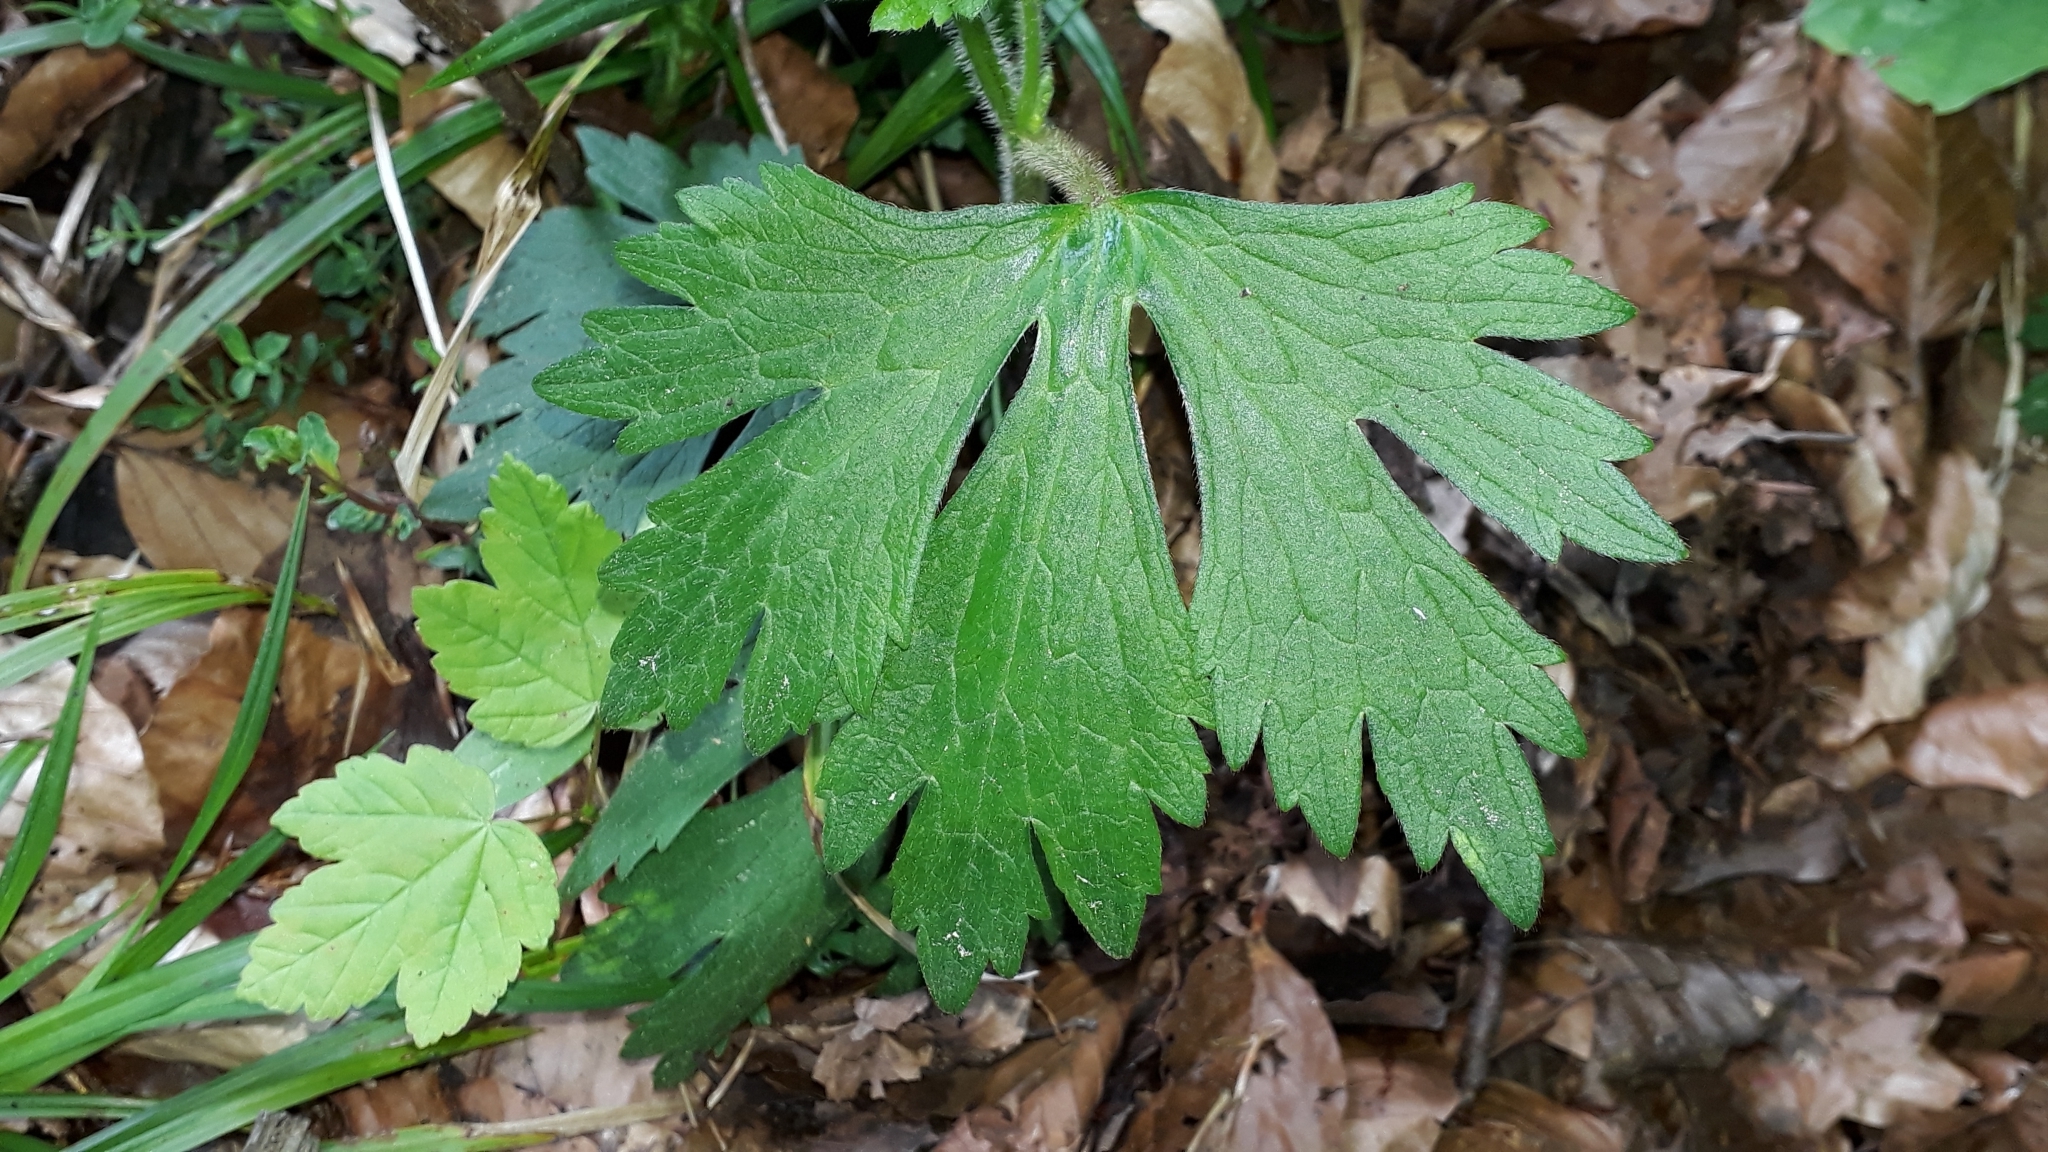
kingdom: Plantae
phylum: Tracheophyta
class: Magnoliopsida
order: Ranunculales
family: Ranunculaceae
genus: Ranunculus
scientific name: Ranunculus lanuginosus
